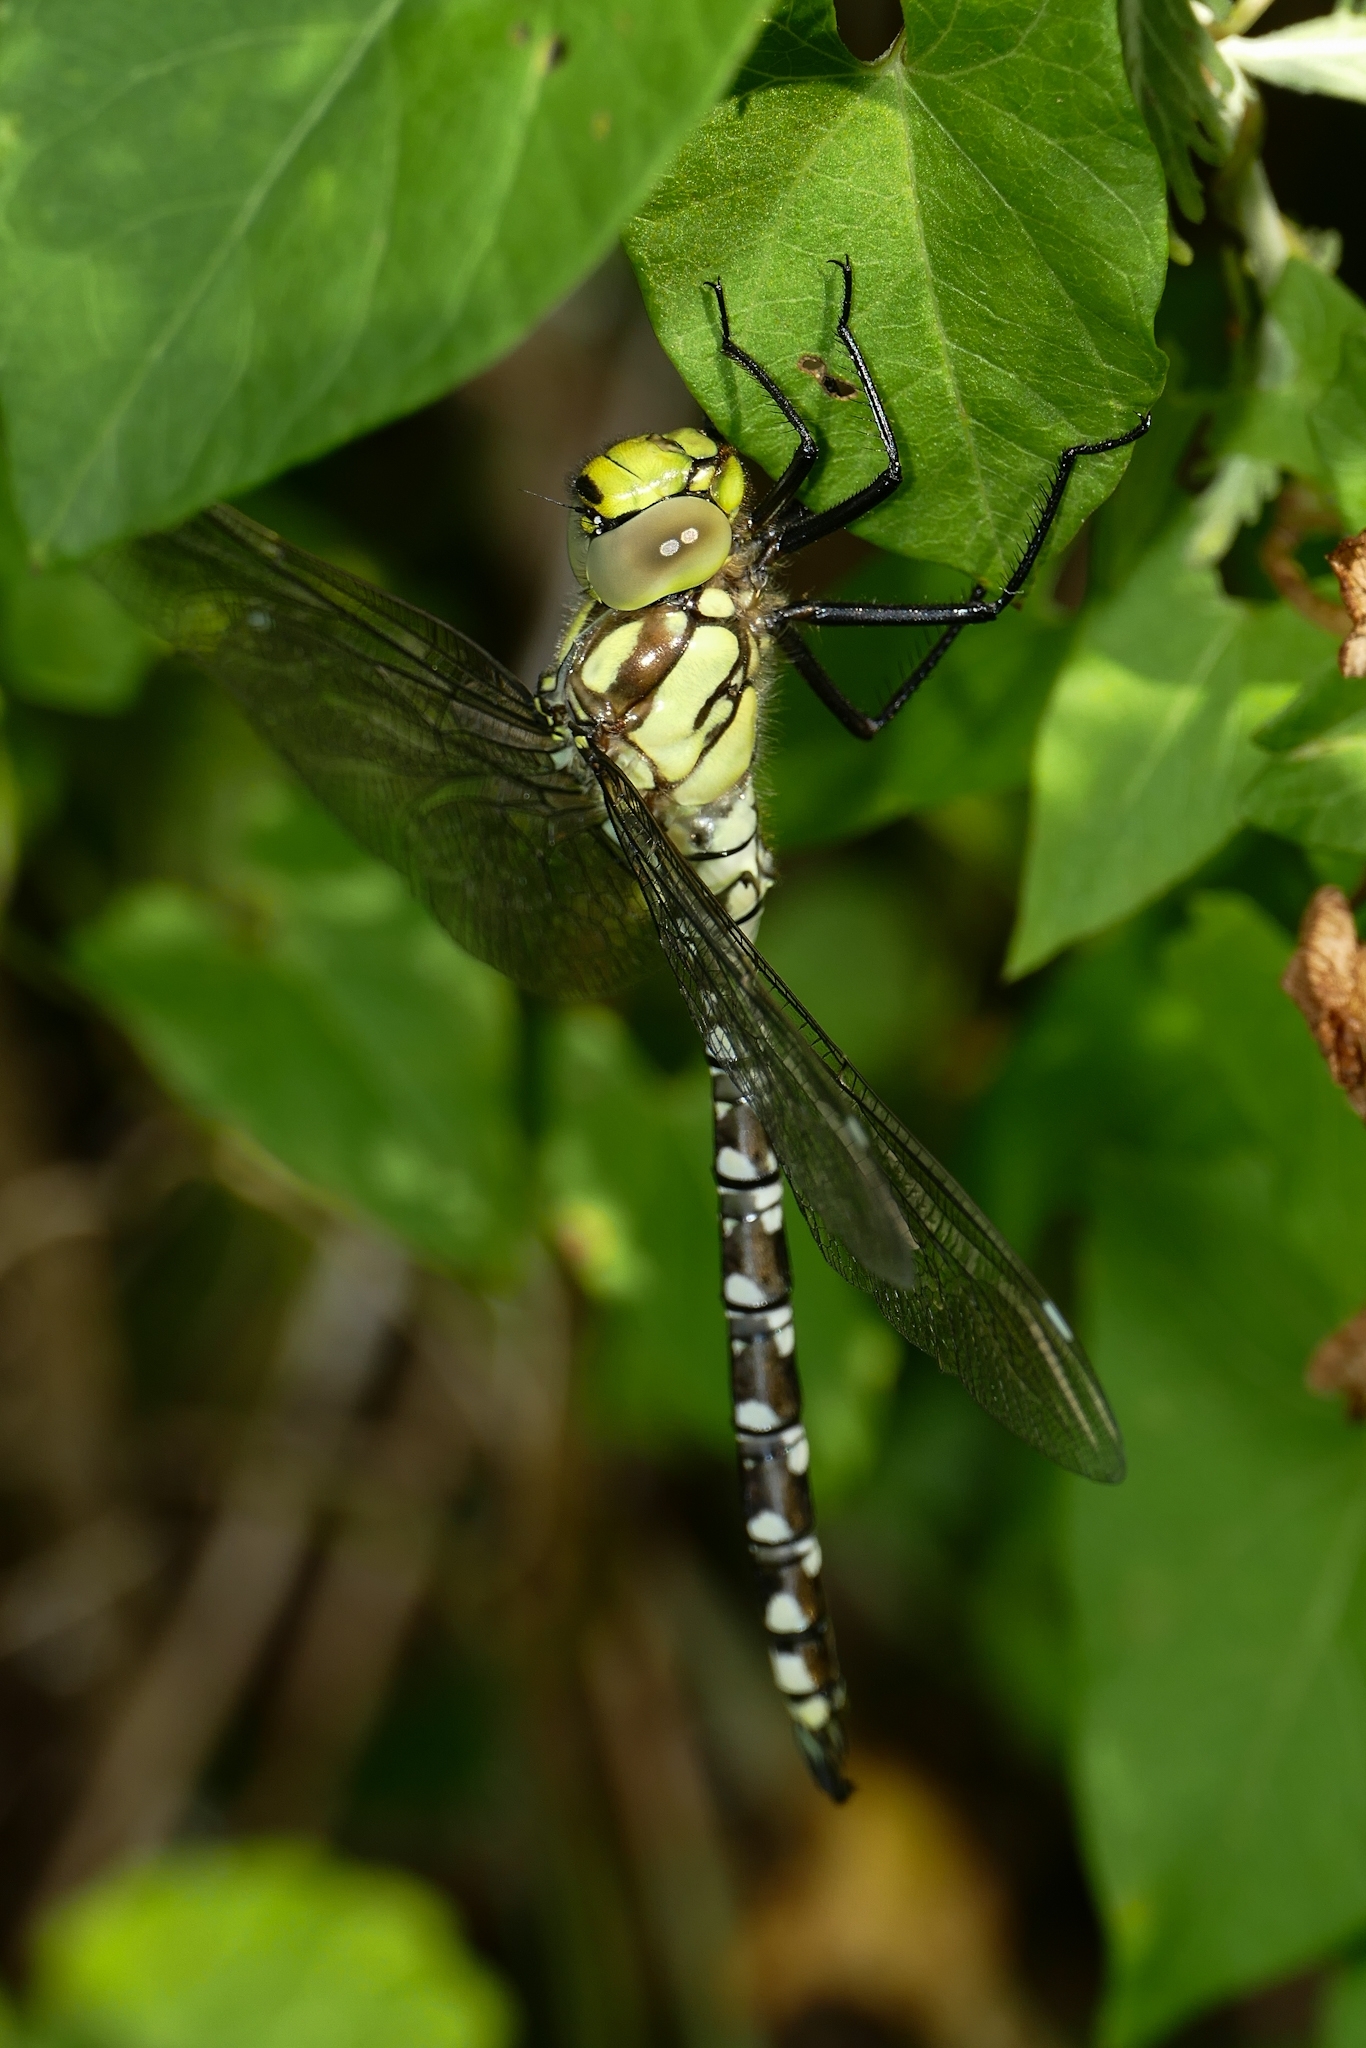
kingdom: Animalia
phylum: Arthropoda
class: Insecta
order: Odonata
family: Aeshnidae
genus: Aeshna
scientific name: Aeshna cyanea
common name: Southern hawker
